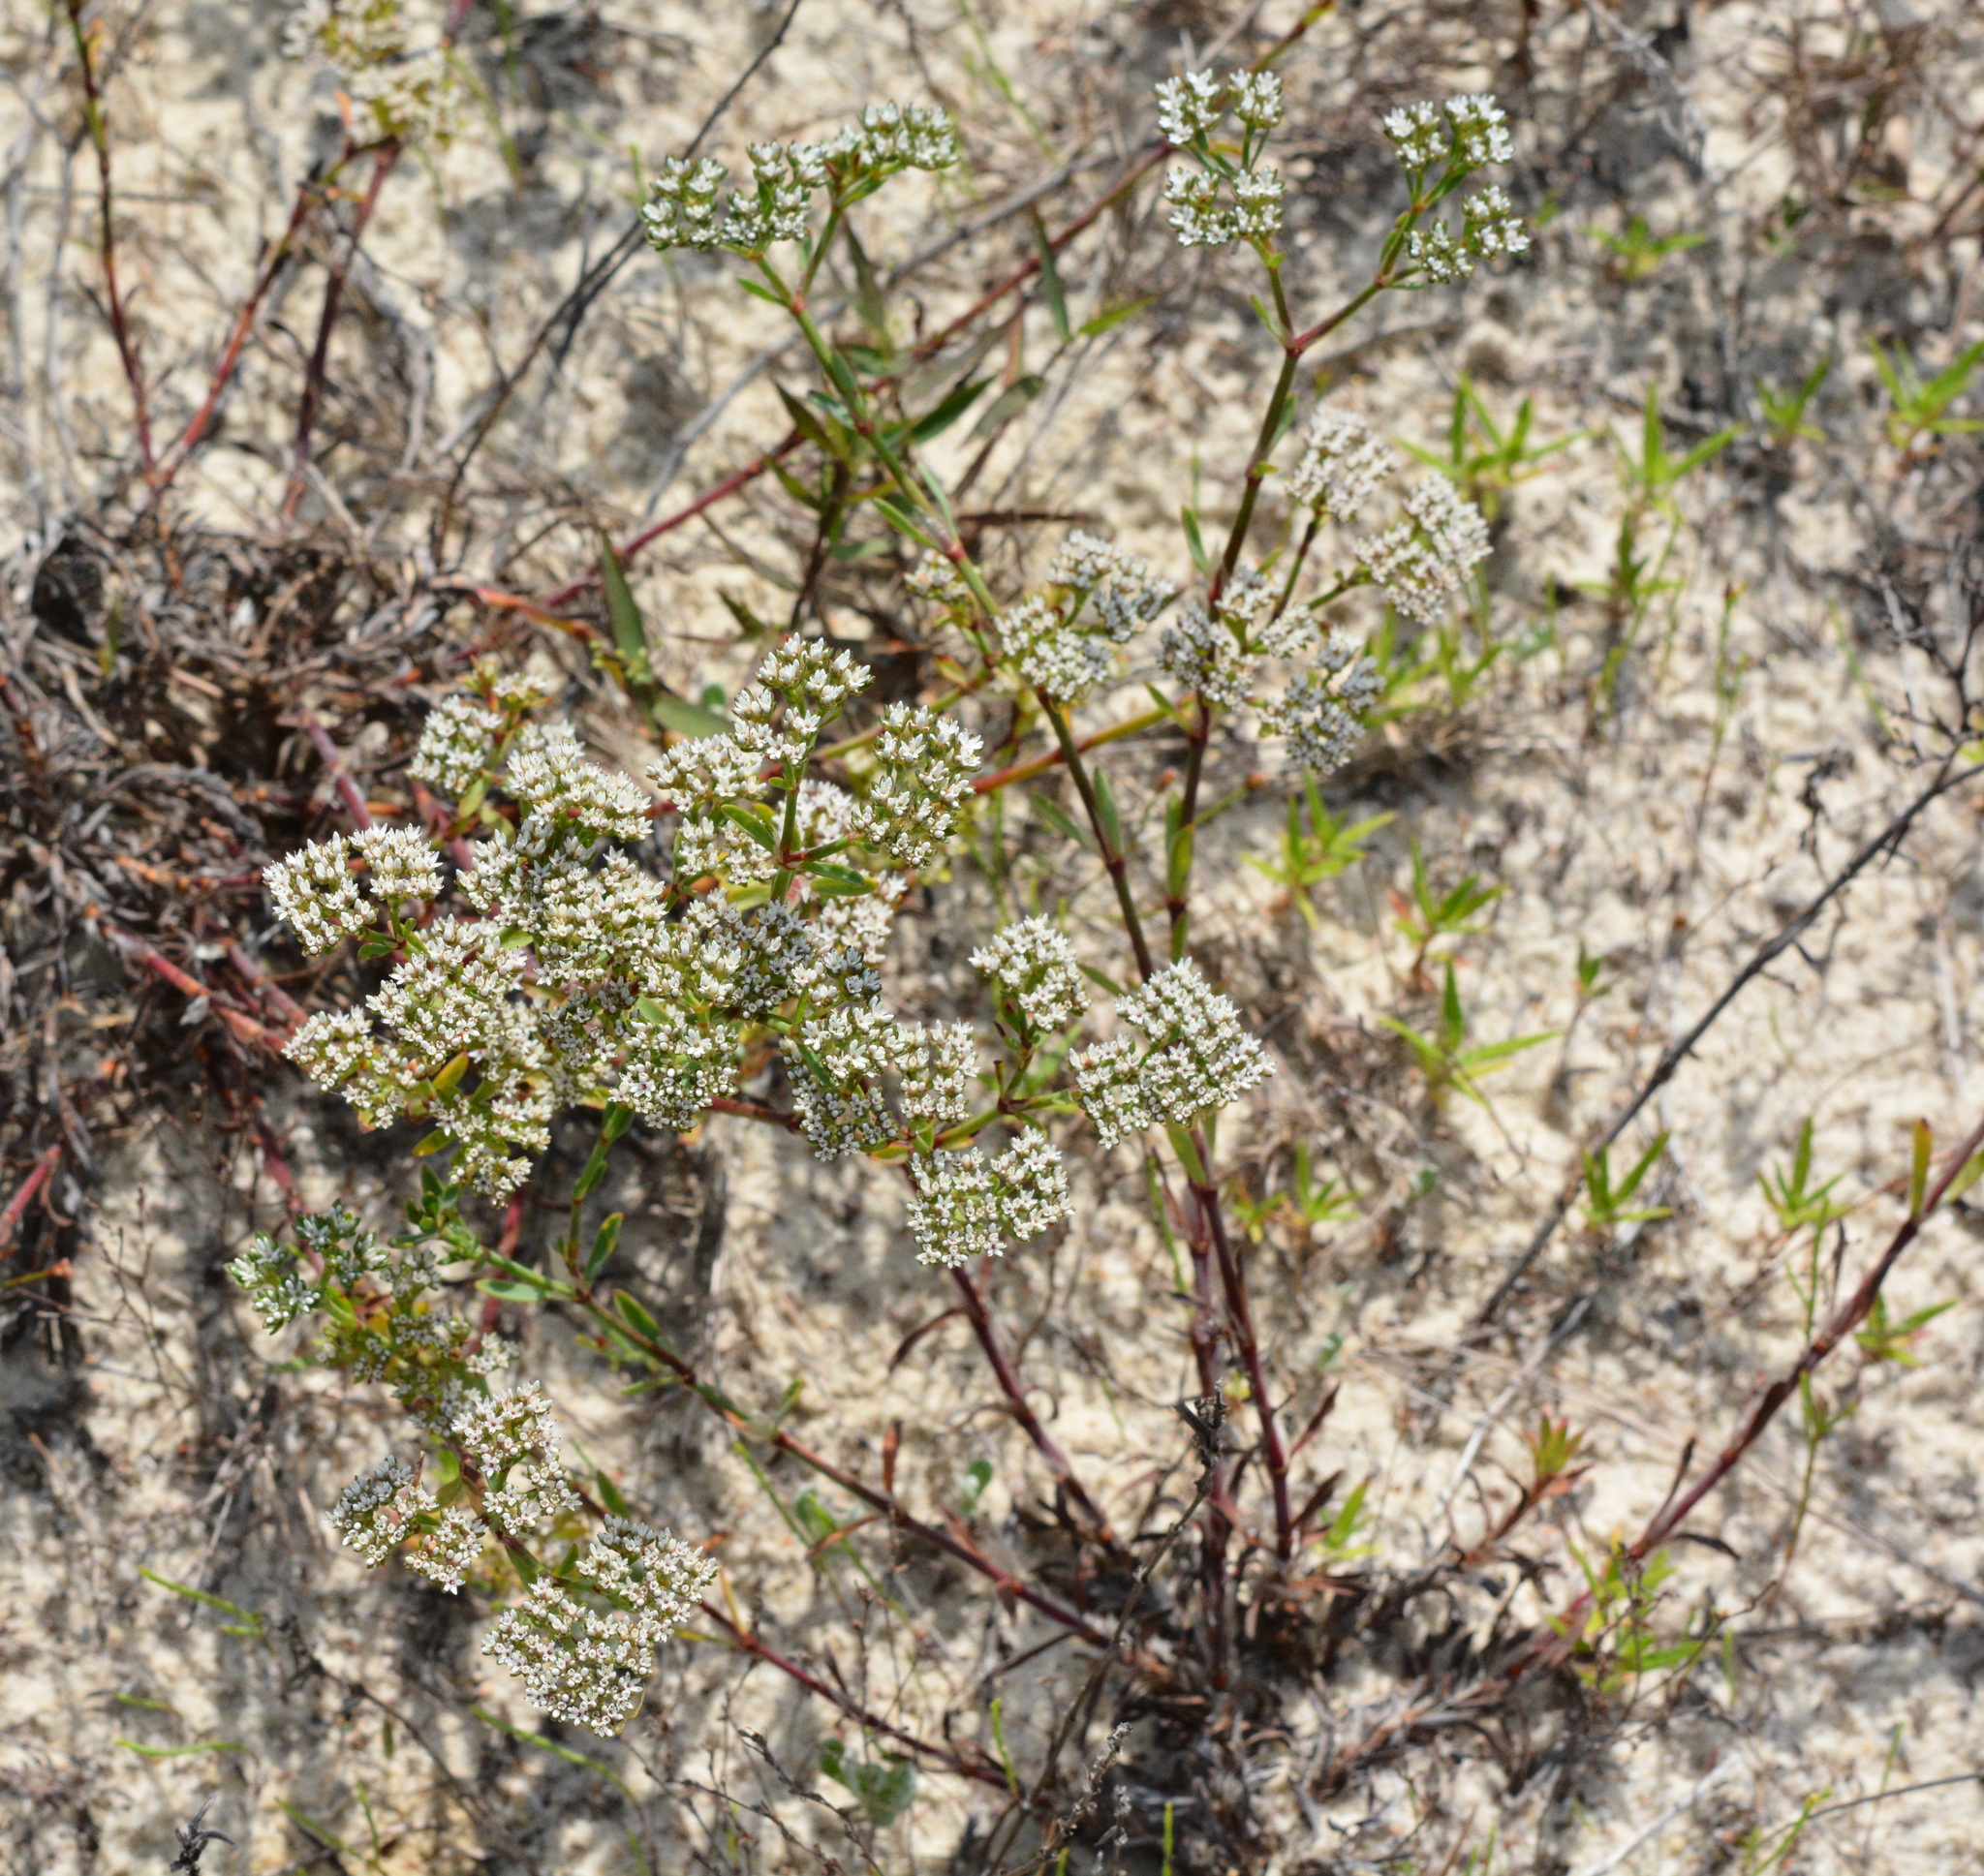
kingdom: Plantae
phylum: Tracheophyta
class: Magnoliopsida
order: Caryophyllales
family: Caryophyllaceae
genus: Paronychia
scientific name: Paronychia erecta
